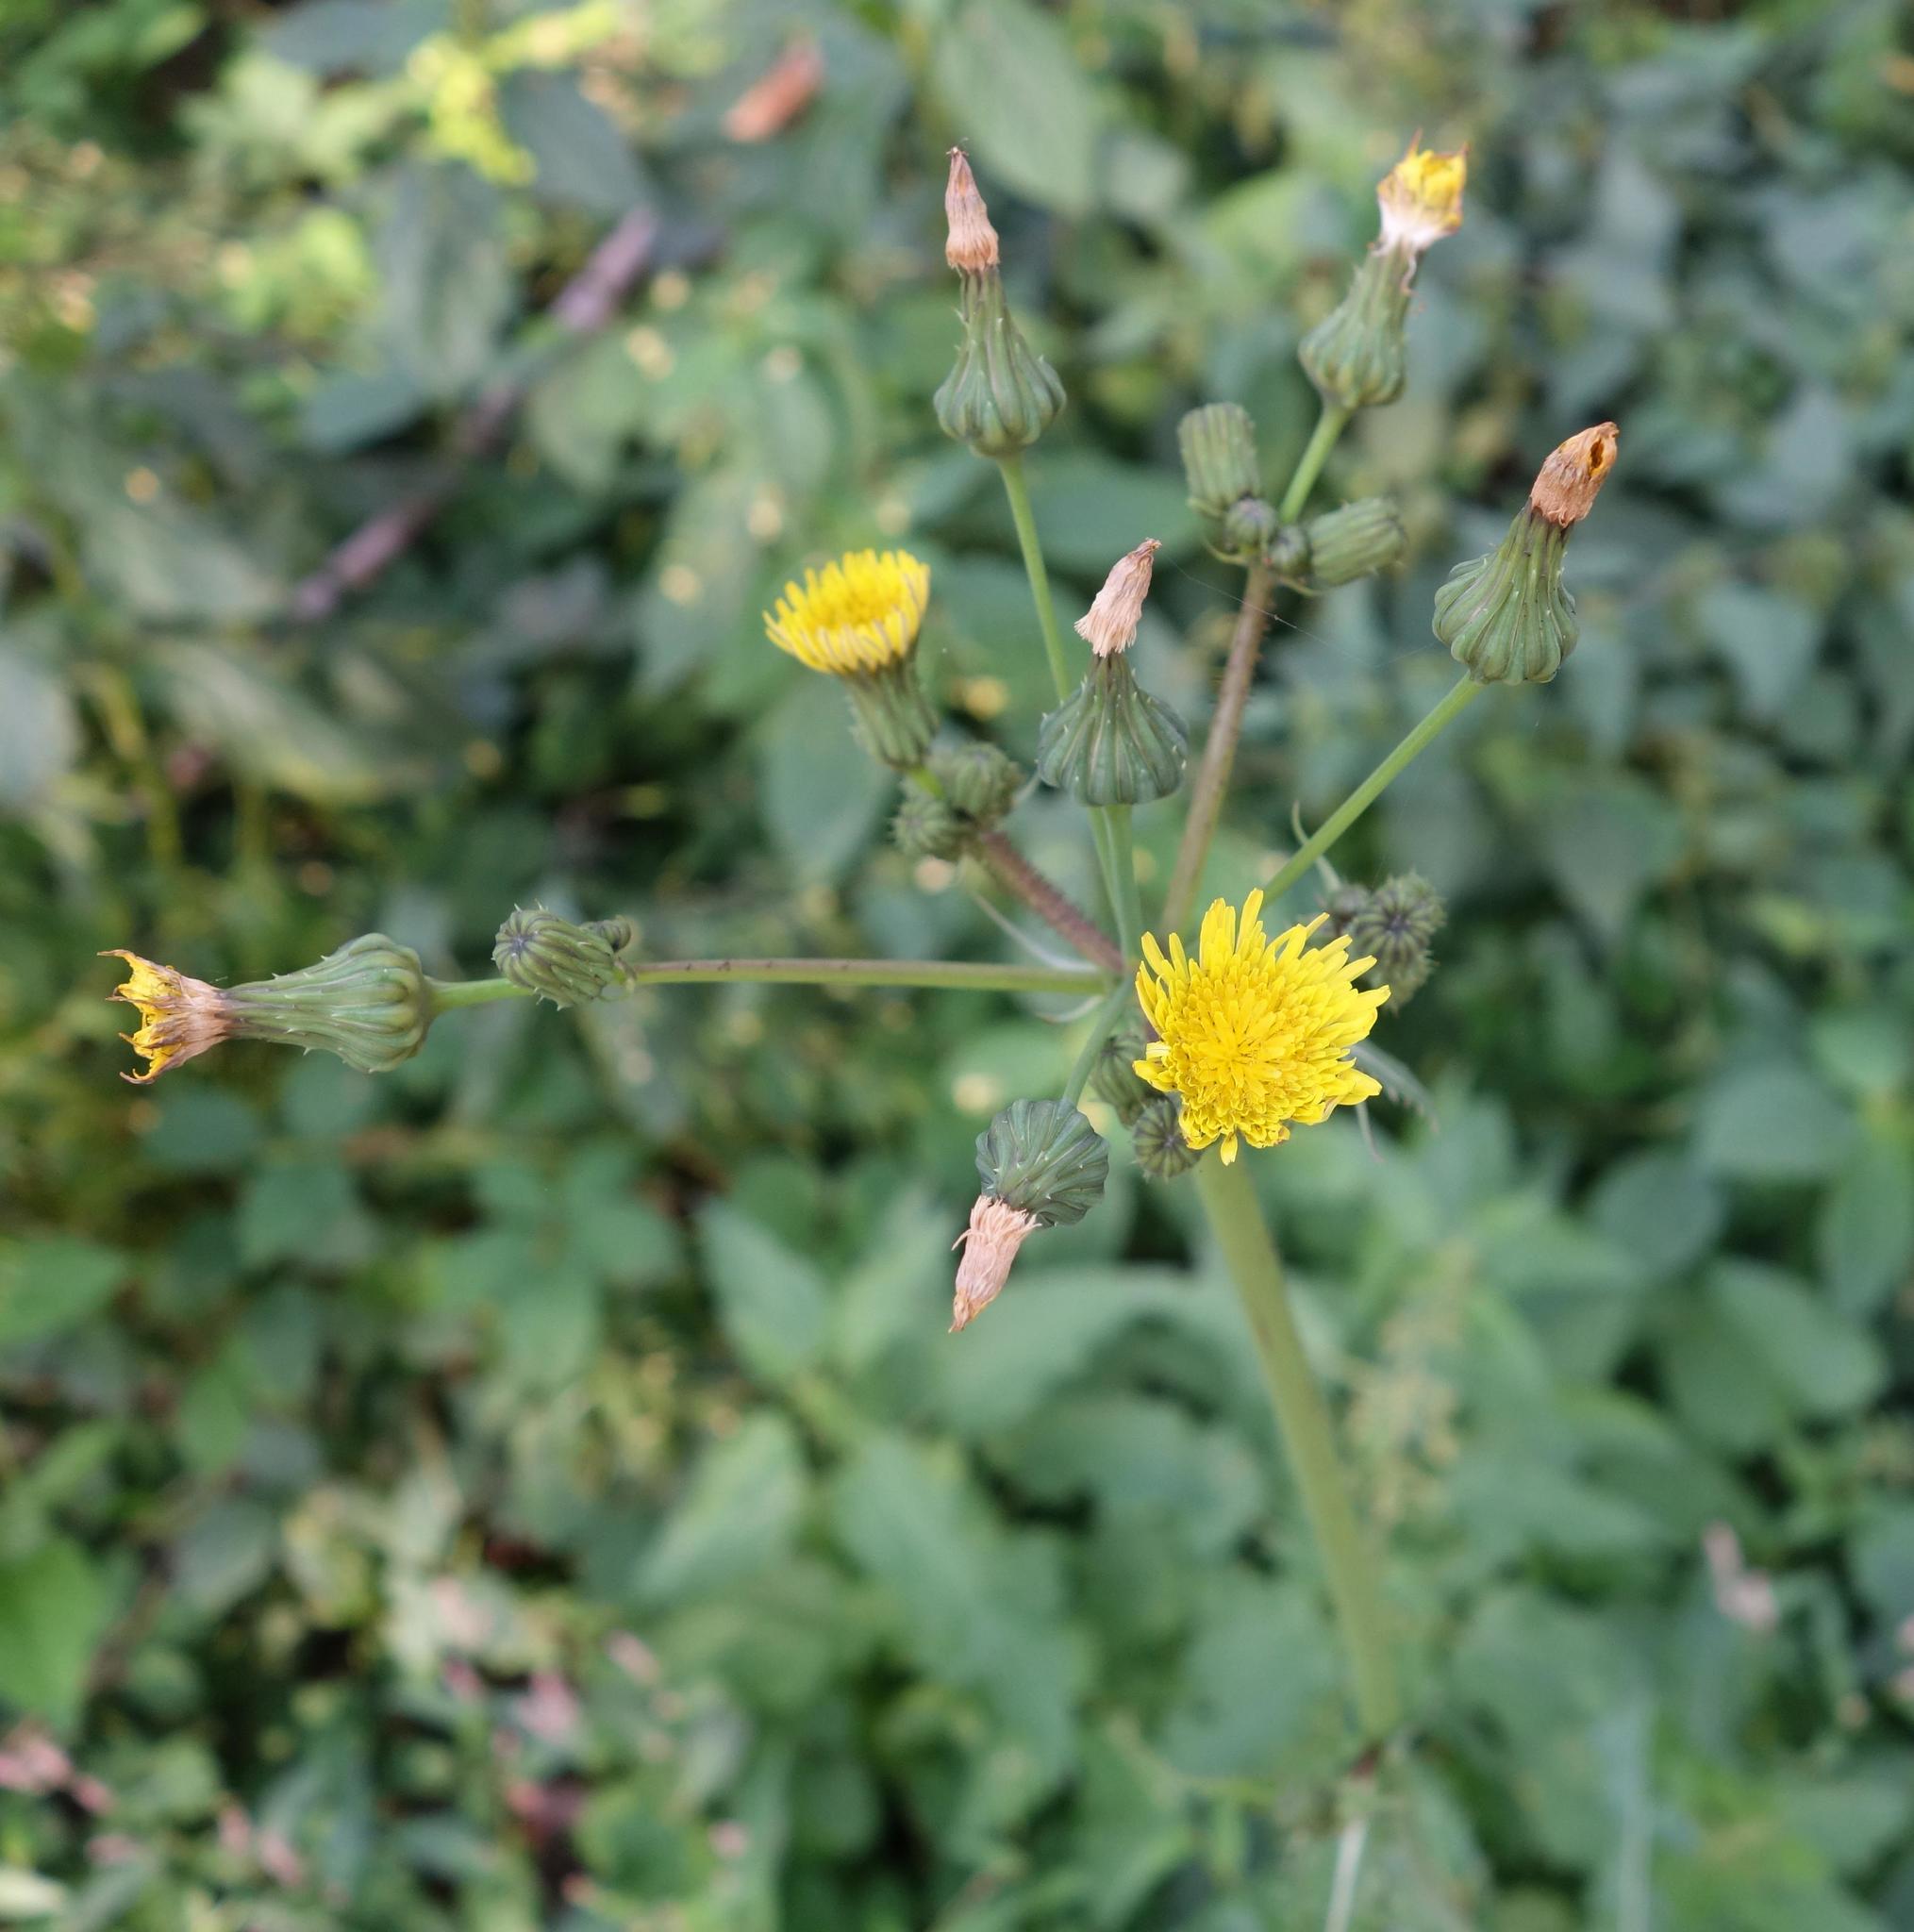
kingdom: Plantae
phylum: Tracheophyta
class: Magnoliopsida
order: Asterales
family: Asteraceae
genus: Sonchus
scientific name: Sonchus asper
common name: Prickly sow-thistle
